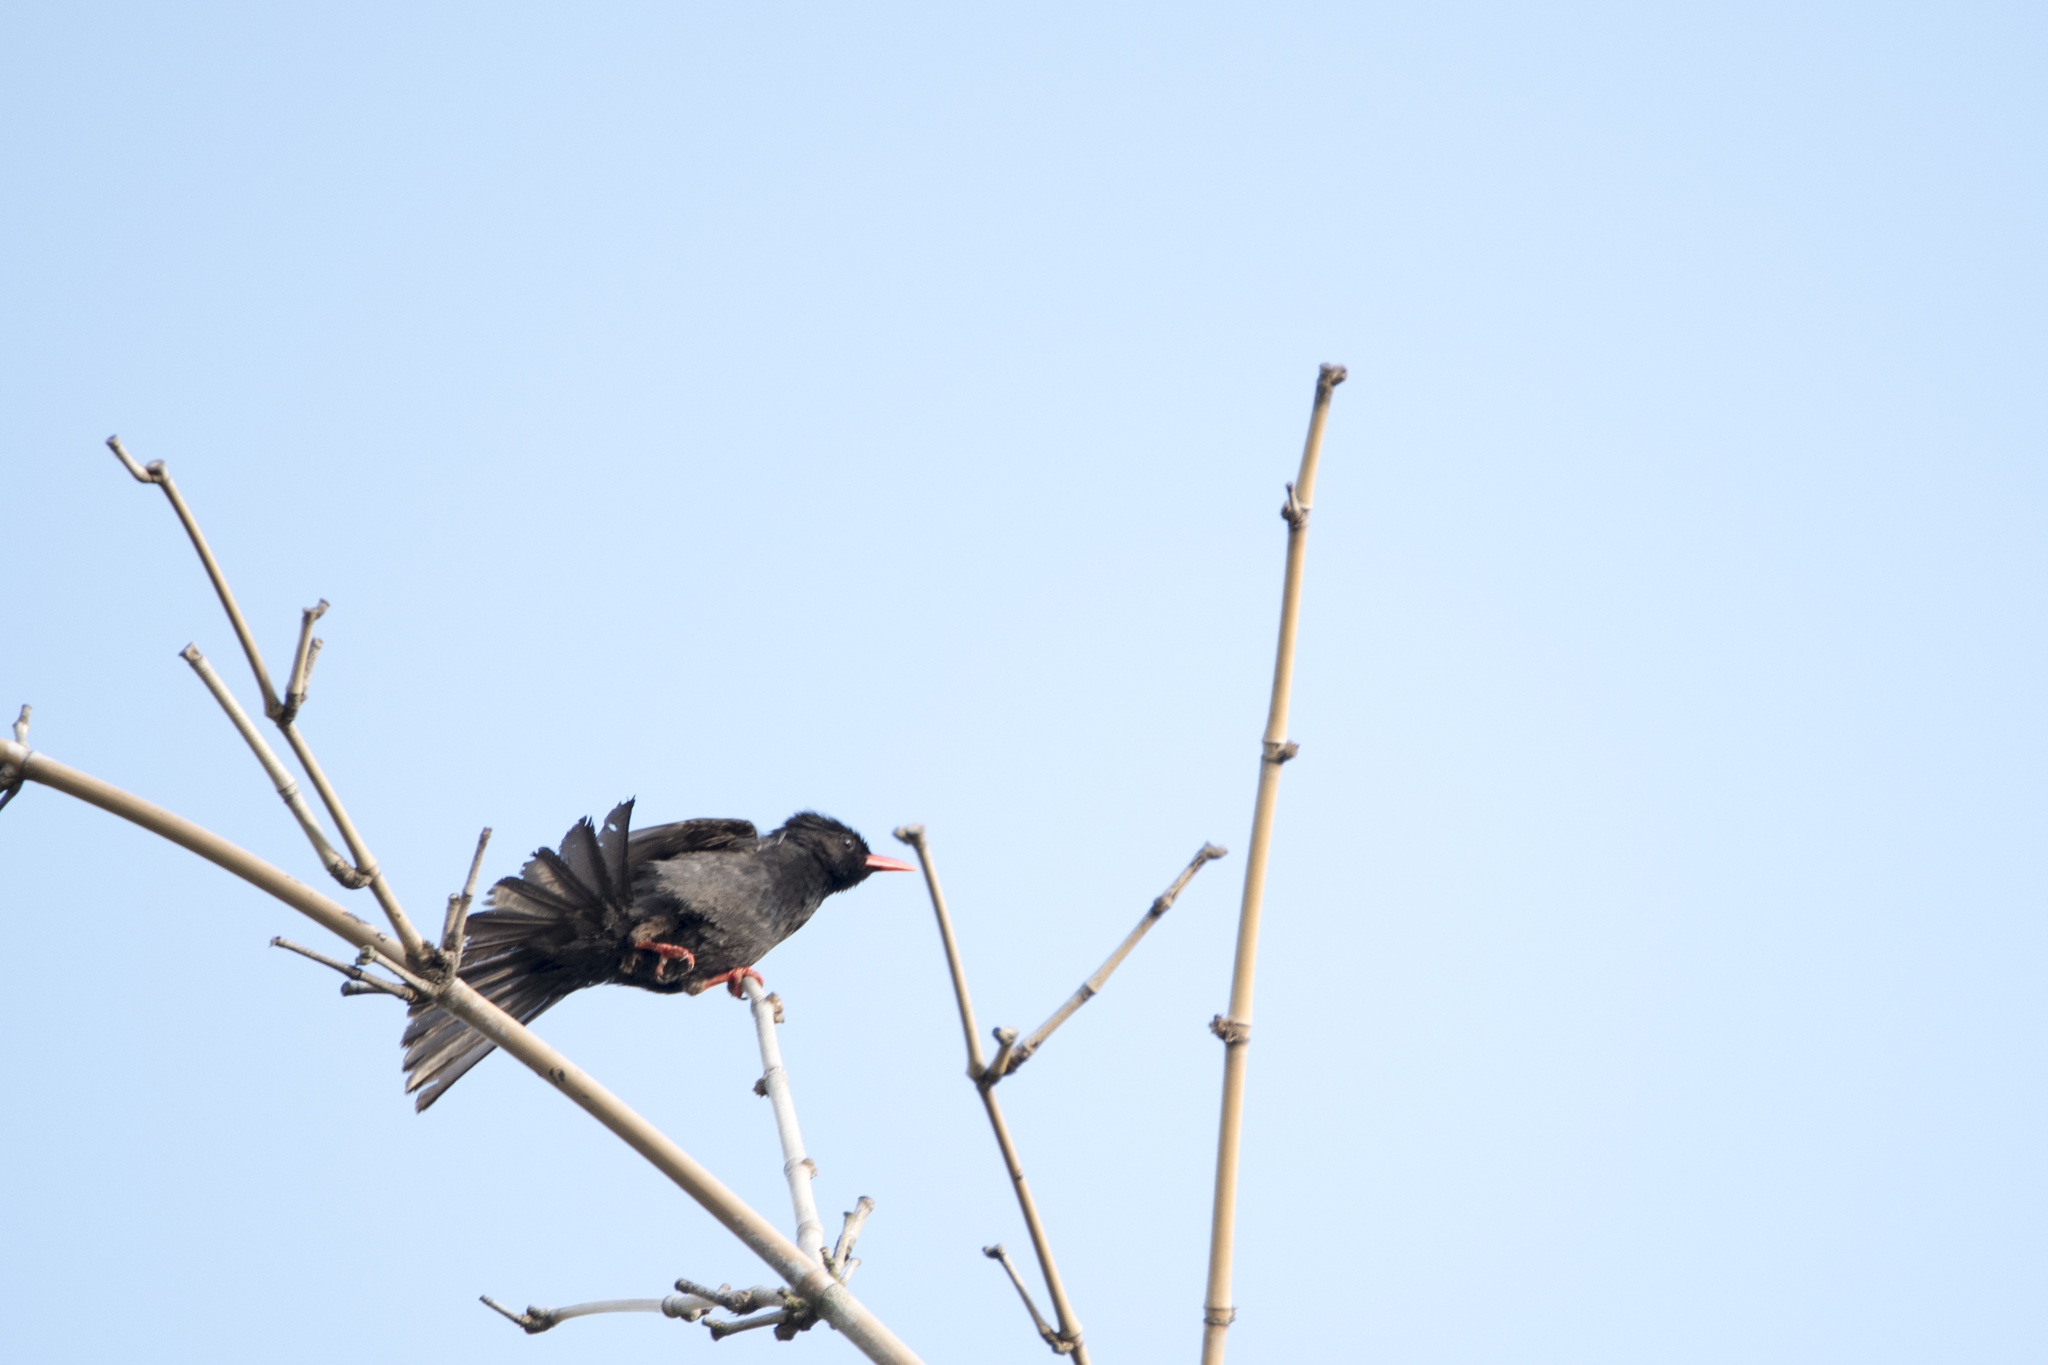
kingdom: Animalia
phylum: Chordata
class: Aves
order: Passeriformes
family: Pycnonotidae
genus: Hypsipetes
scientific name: Hypsipetes leucocephalus
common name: Black bulbul
